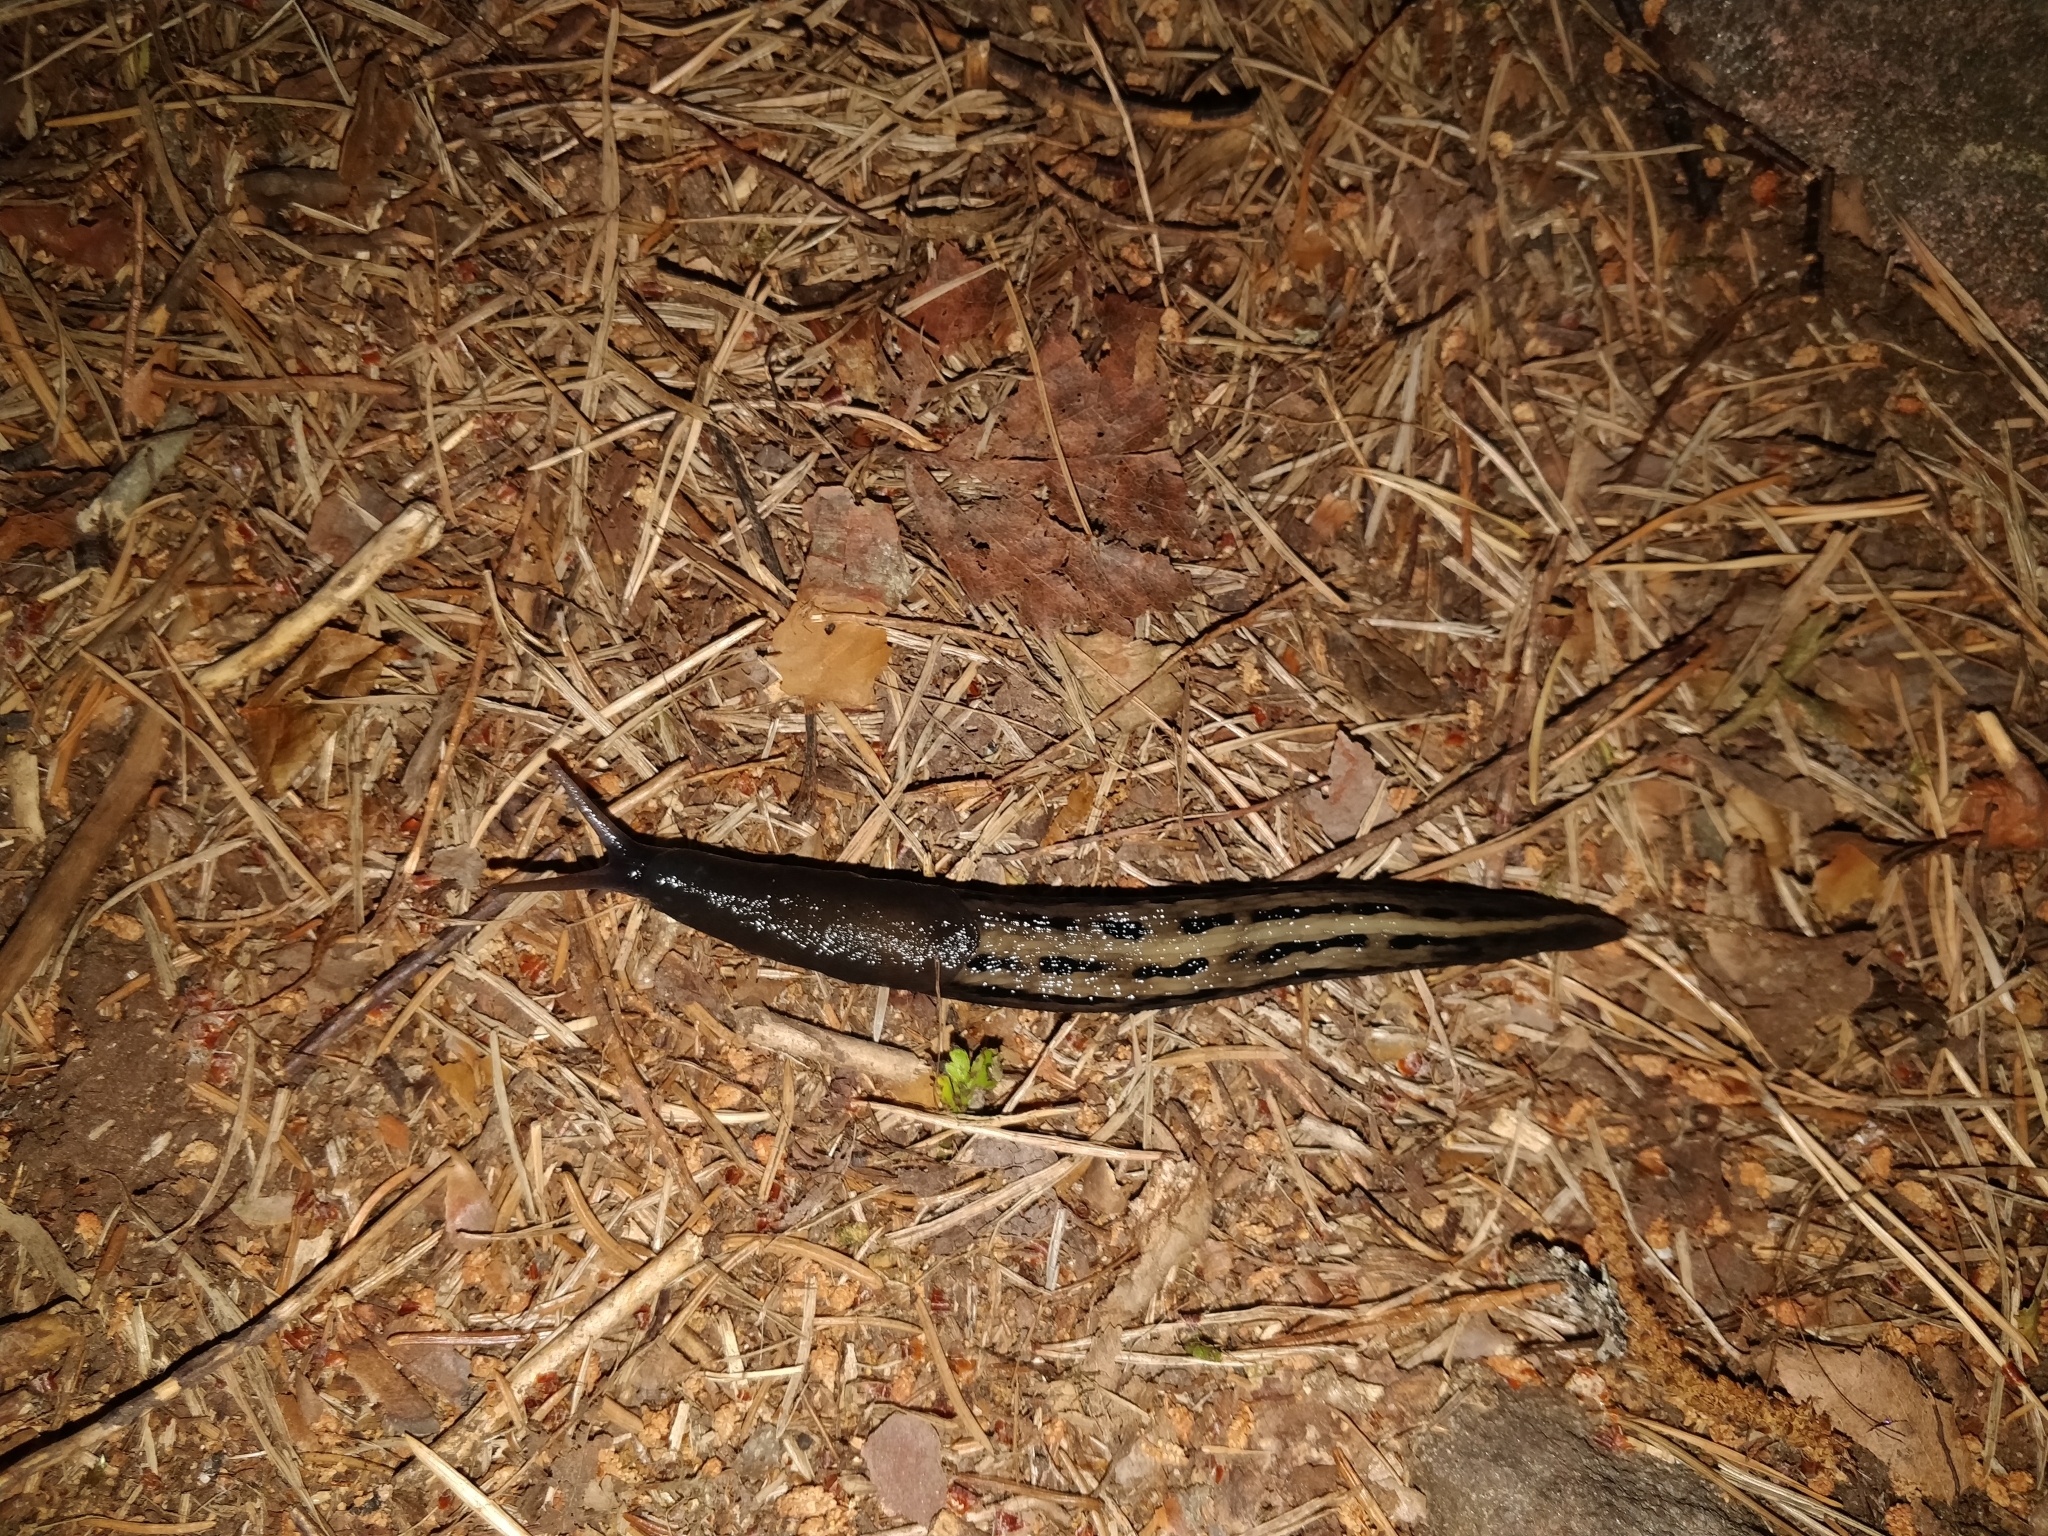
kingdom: Animalia
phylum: Mollusca
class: Gastropoda
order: Stylommatophora
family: Limacidae
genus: Limax
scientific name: Limax cinereoniger
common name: Ash-black slug
